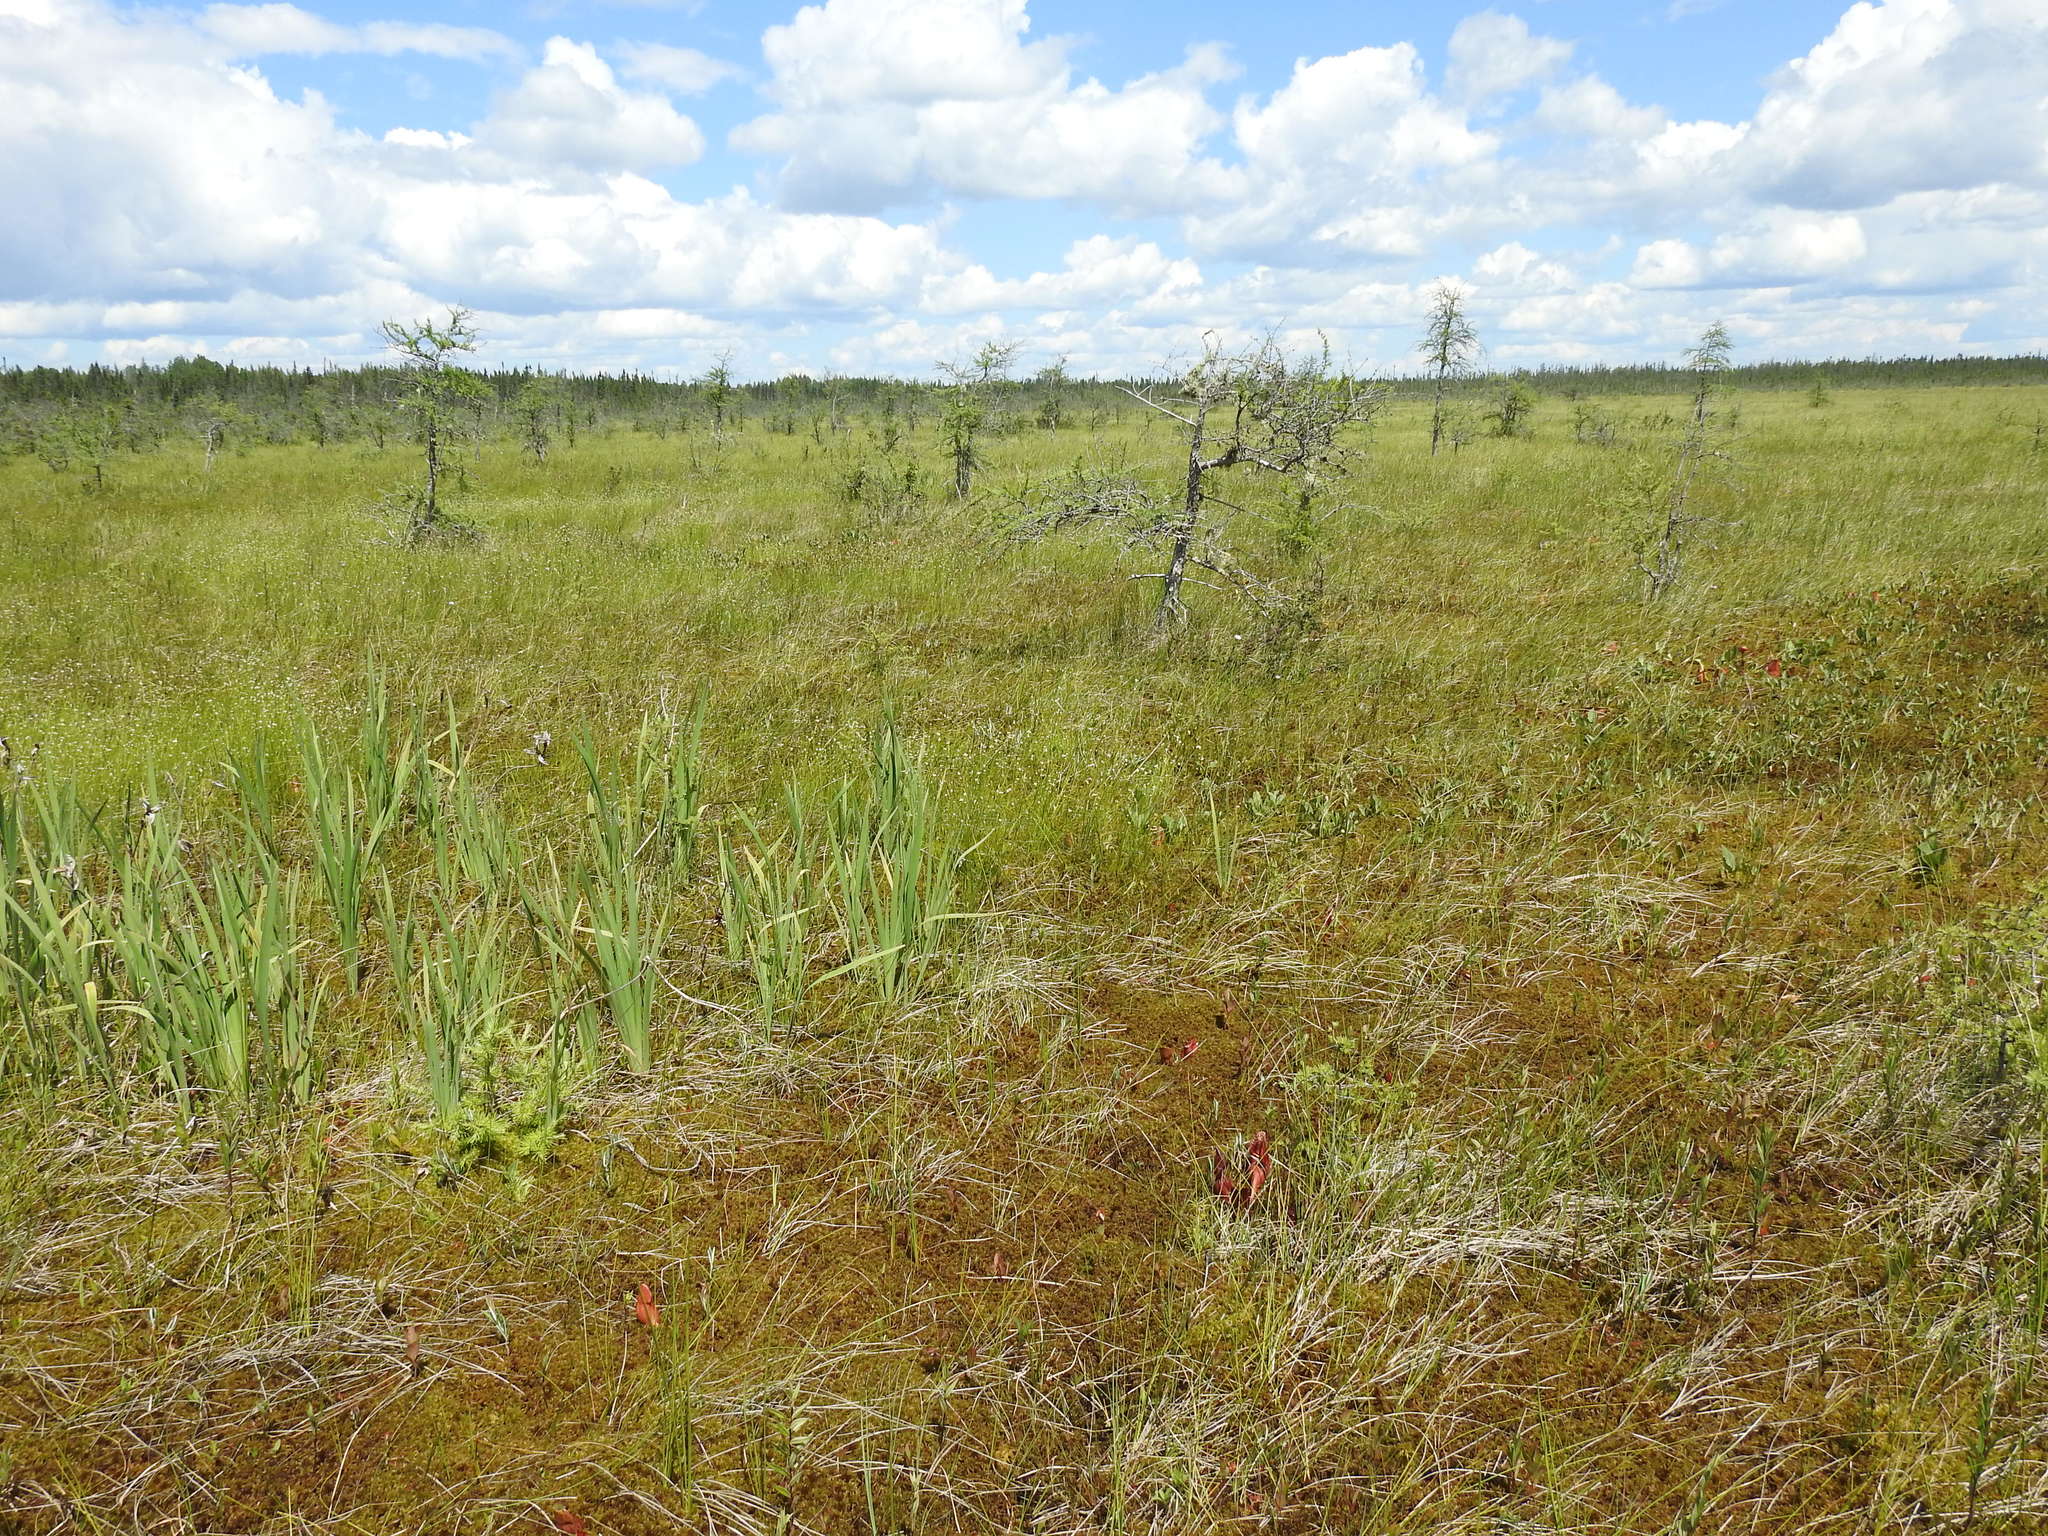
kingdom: Plantae
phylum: Tracheophyta
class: Liliopsida
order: Asparagales
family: Iridaceae
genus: Iris
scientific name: Iris versicolor
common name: Purple iris
